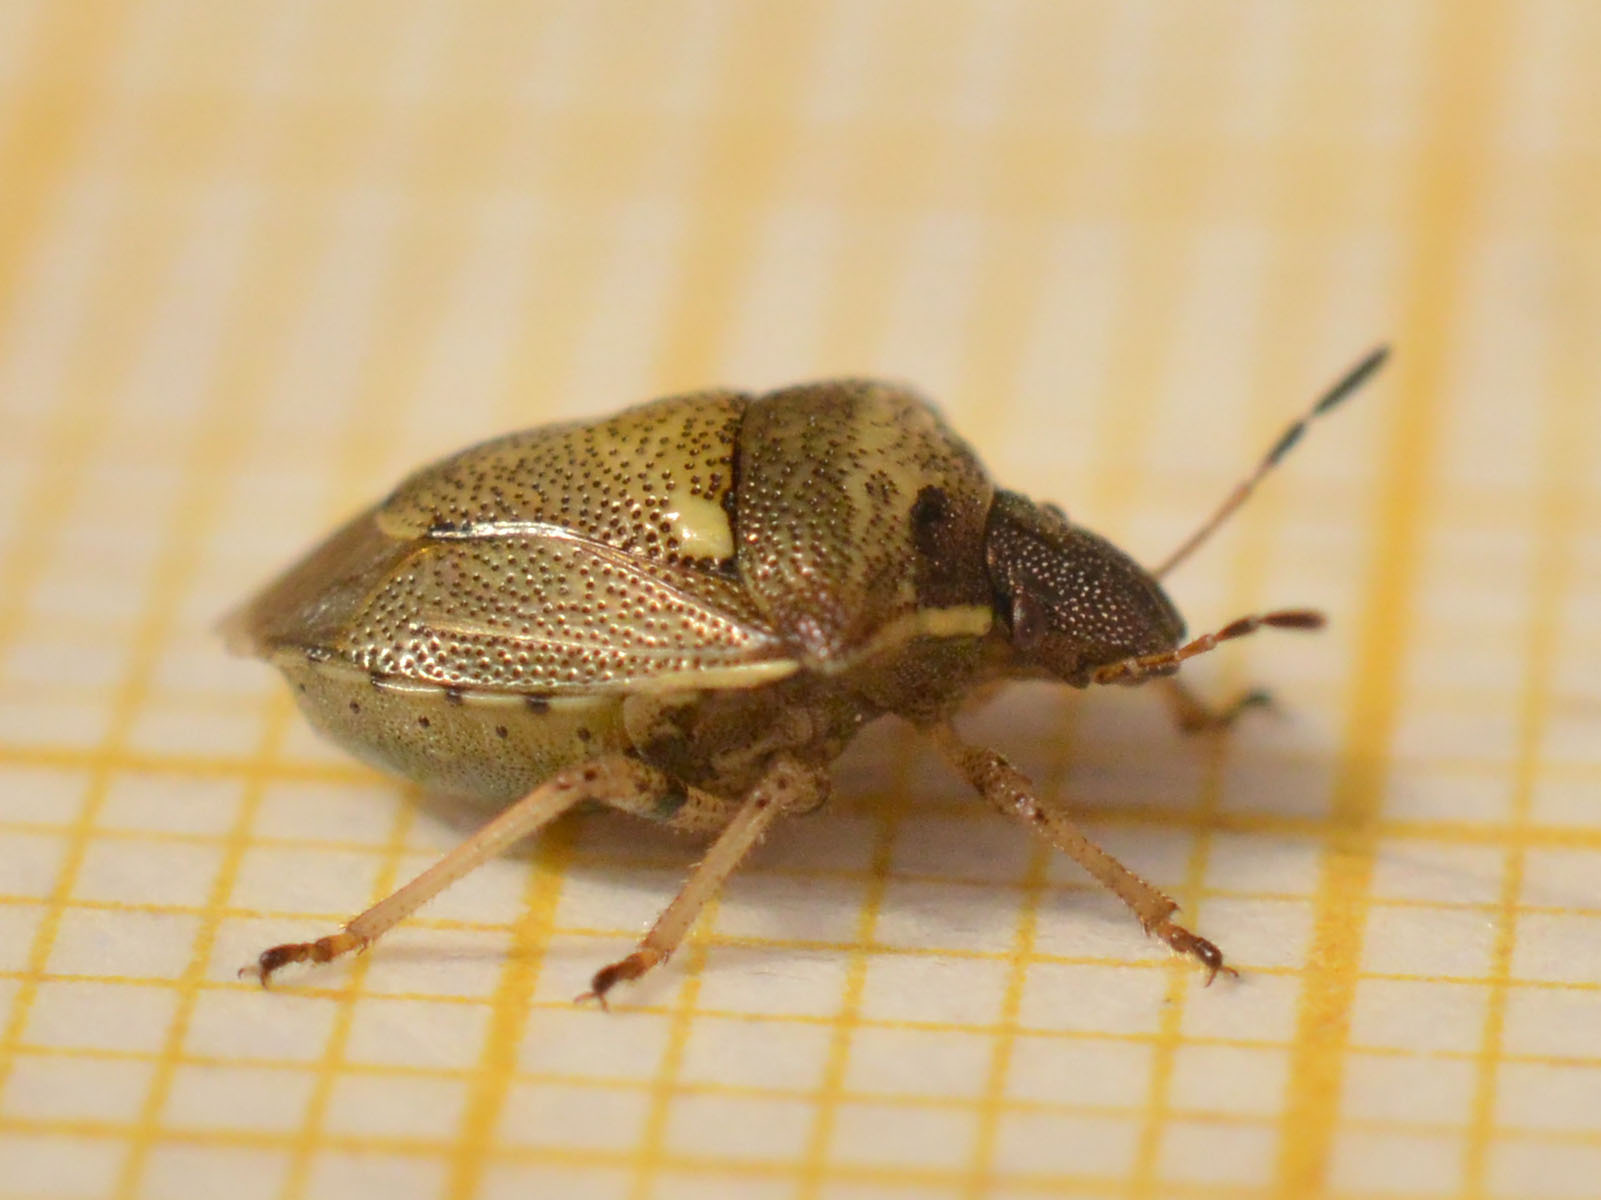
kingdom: Animalia
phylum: Arthropoda
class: Insecta
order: Hemiptera
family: Pentatomidae
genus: Eysarcoris
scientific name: Eysarcoris aeneus
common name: New forest shieldbug
